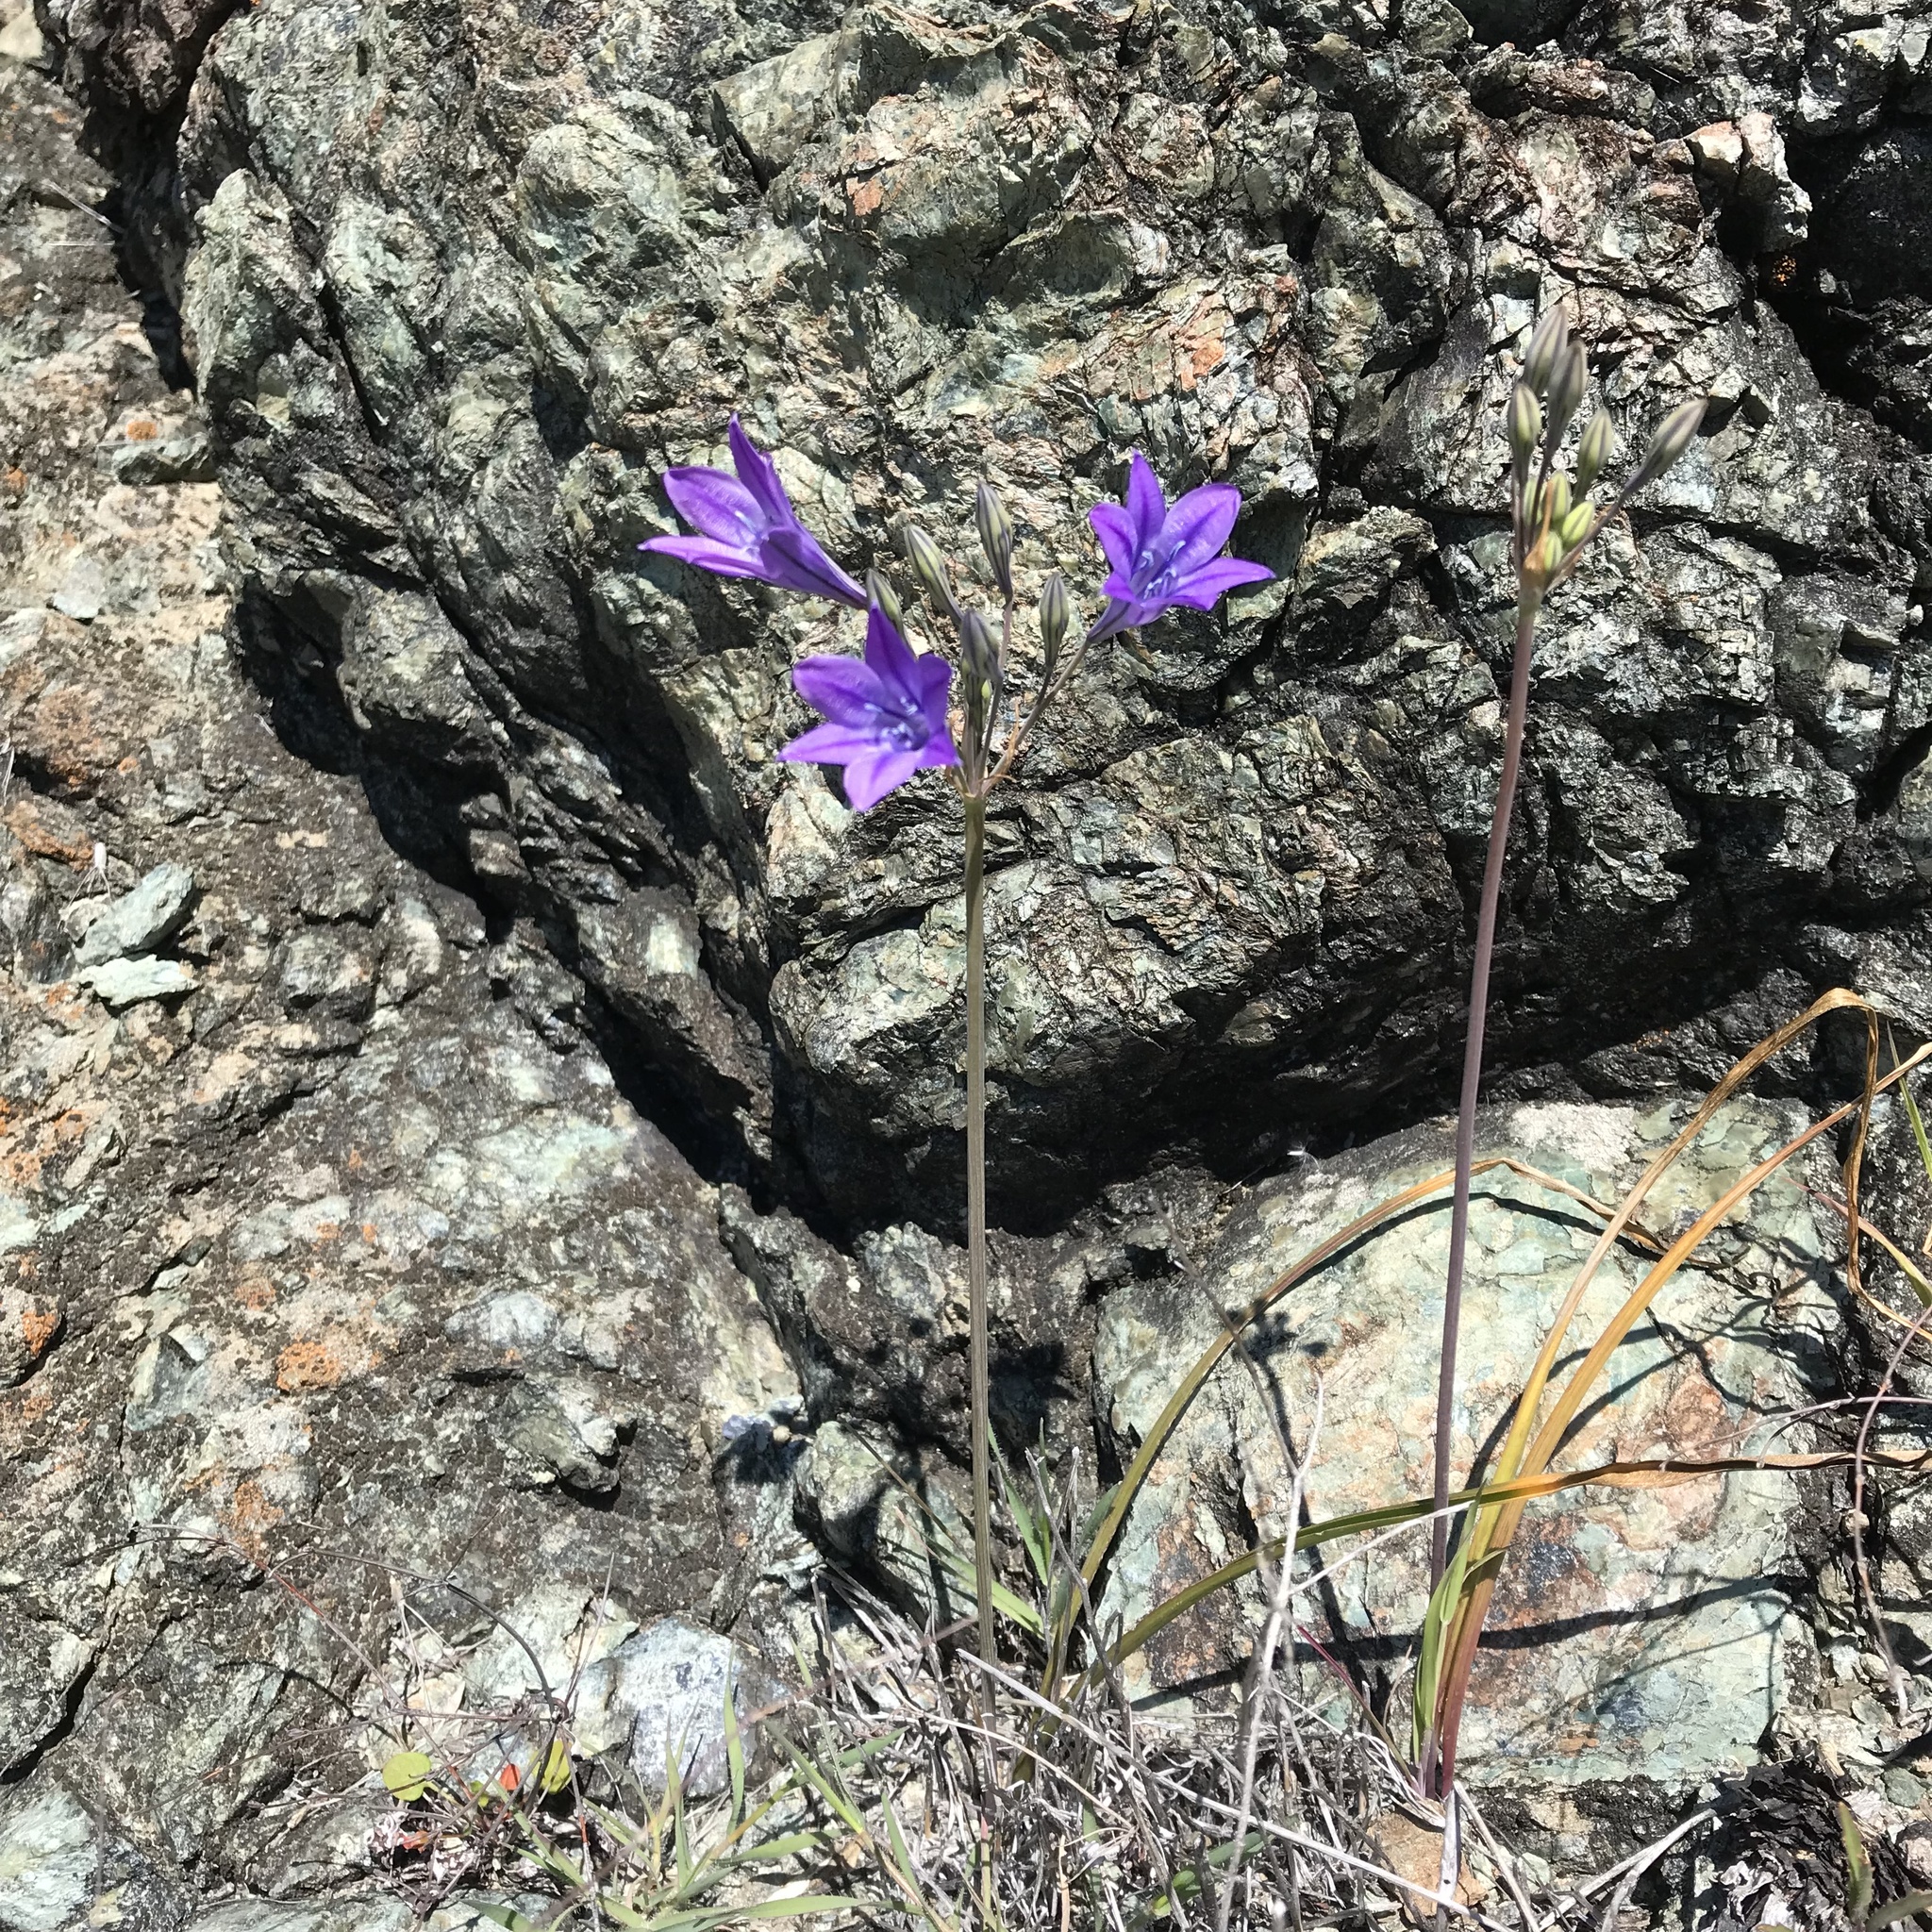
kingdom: Plantae
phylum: Tracheophyta
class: Liliopsida
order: Asparagales
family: Asparagaceae
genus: Triteleia
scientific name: Triteleia laxa
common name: Triplet-lily
